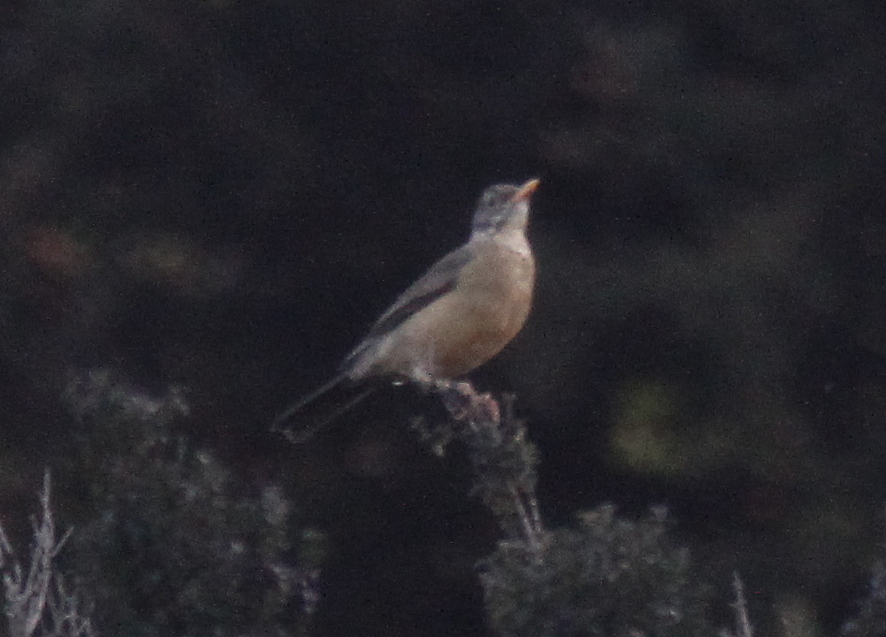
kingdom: Animalia
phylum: Chordata
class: Aves
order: Passeriformes
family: Turdidae
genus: Turdus
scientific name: Turdus falcklandii
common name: Austral thrush
